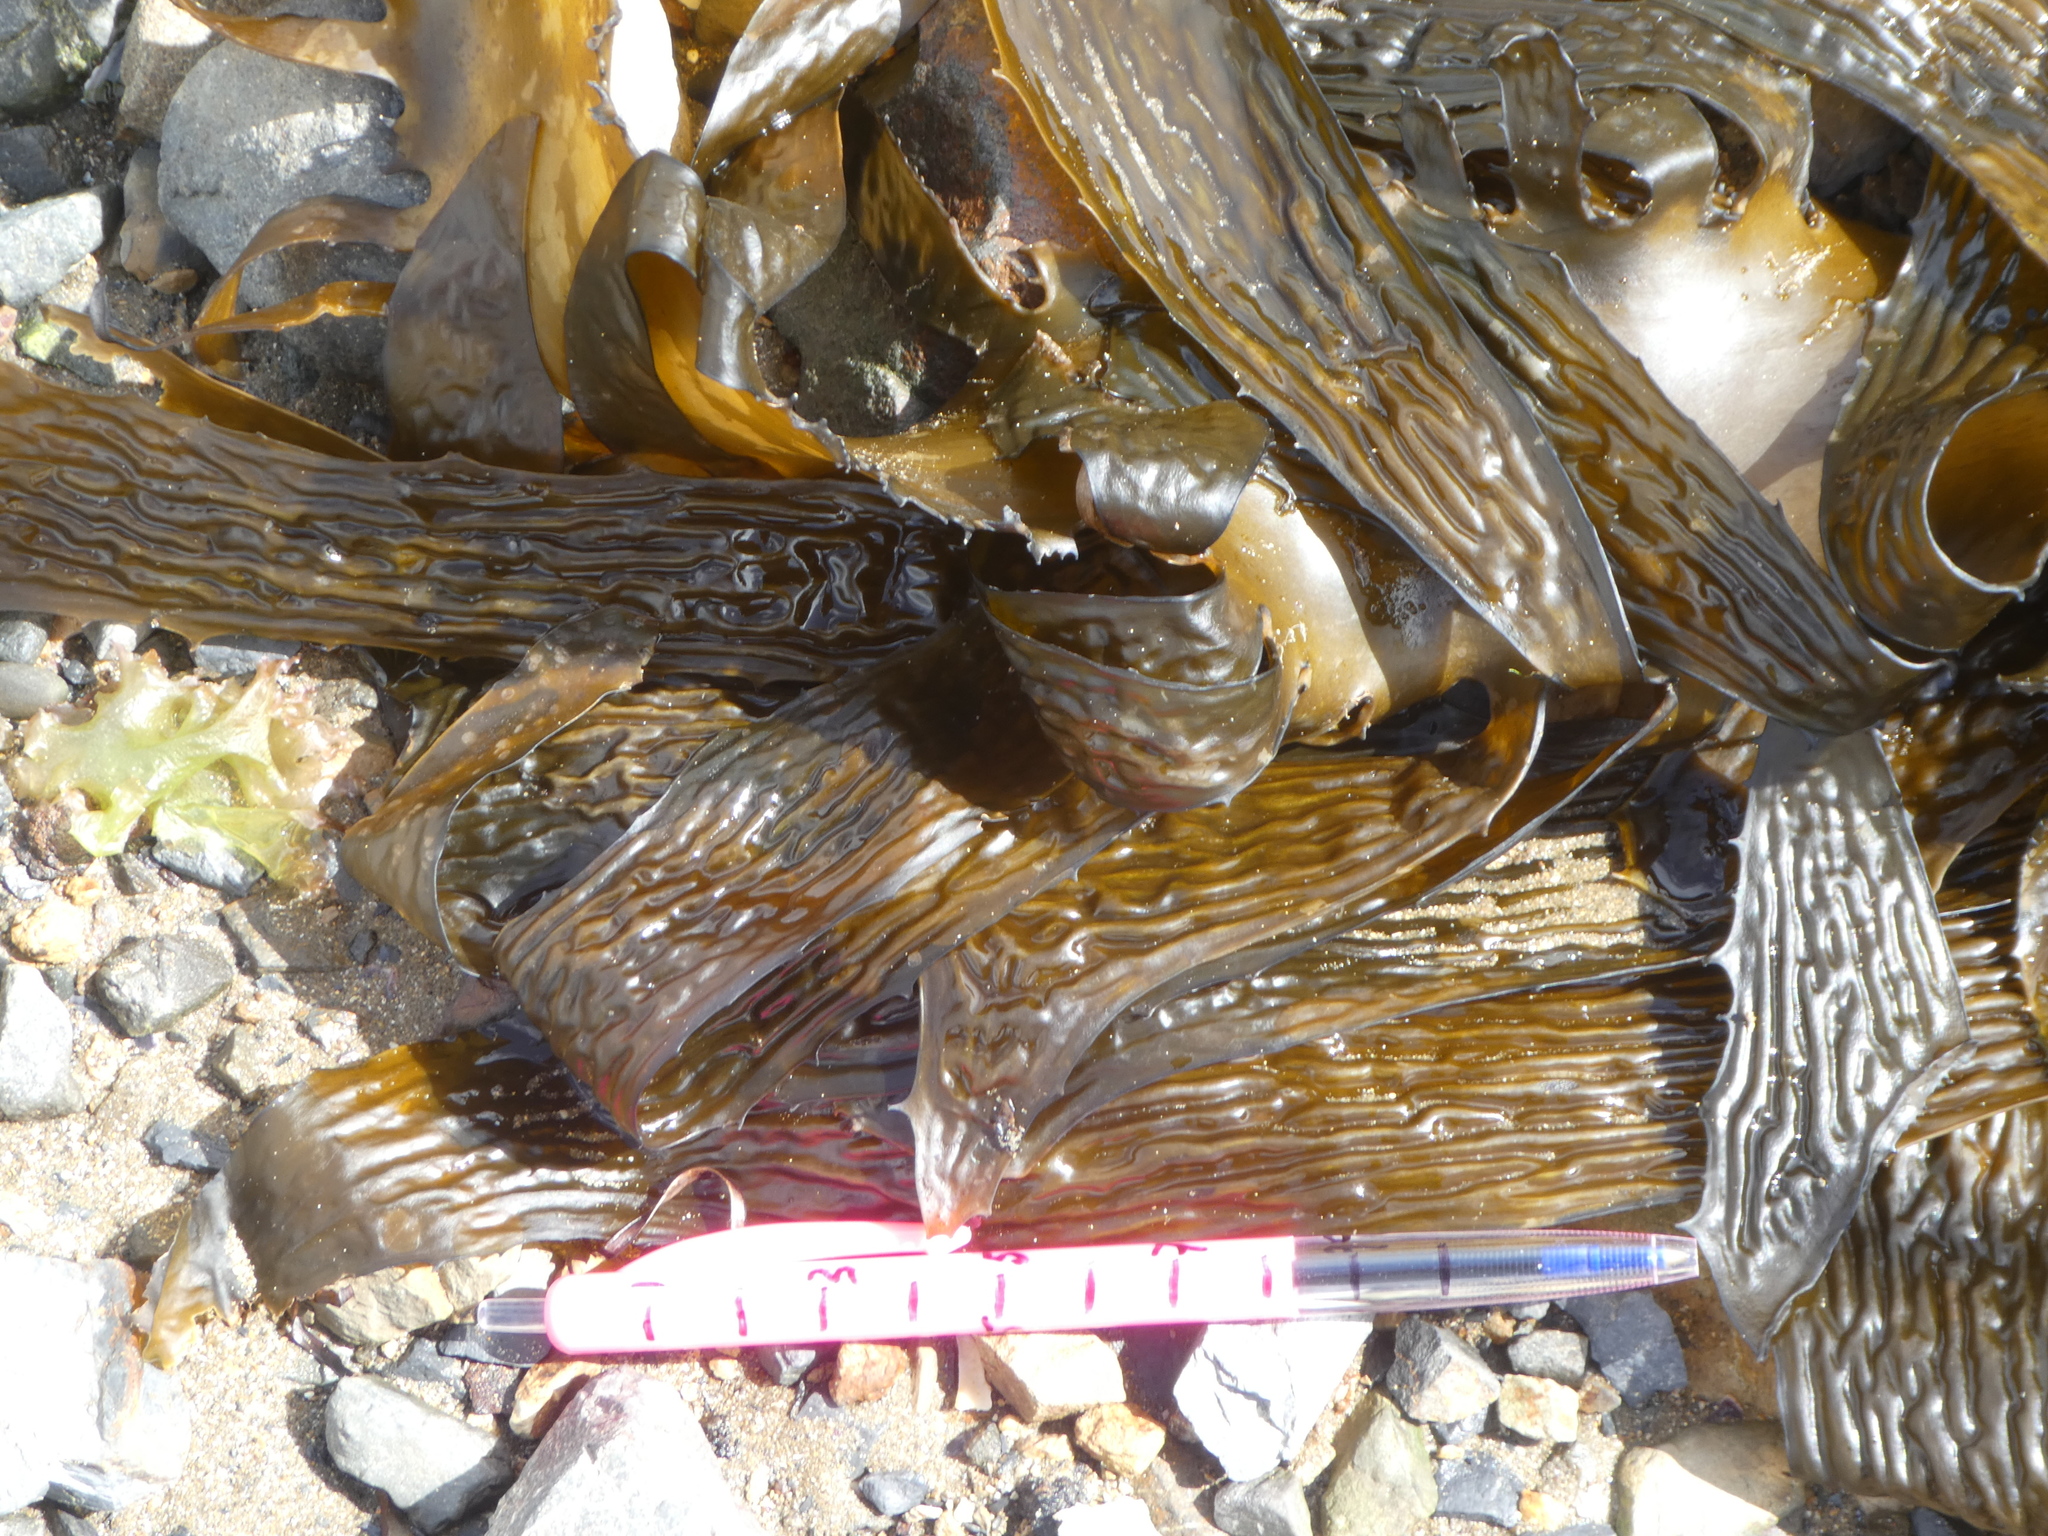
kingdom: Chromista
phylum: Ochrophyta
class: Phaeophyceae
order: Laminariales
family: Laminariaceae
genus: Macrocystis
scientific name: Macrocystis pyrifera
